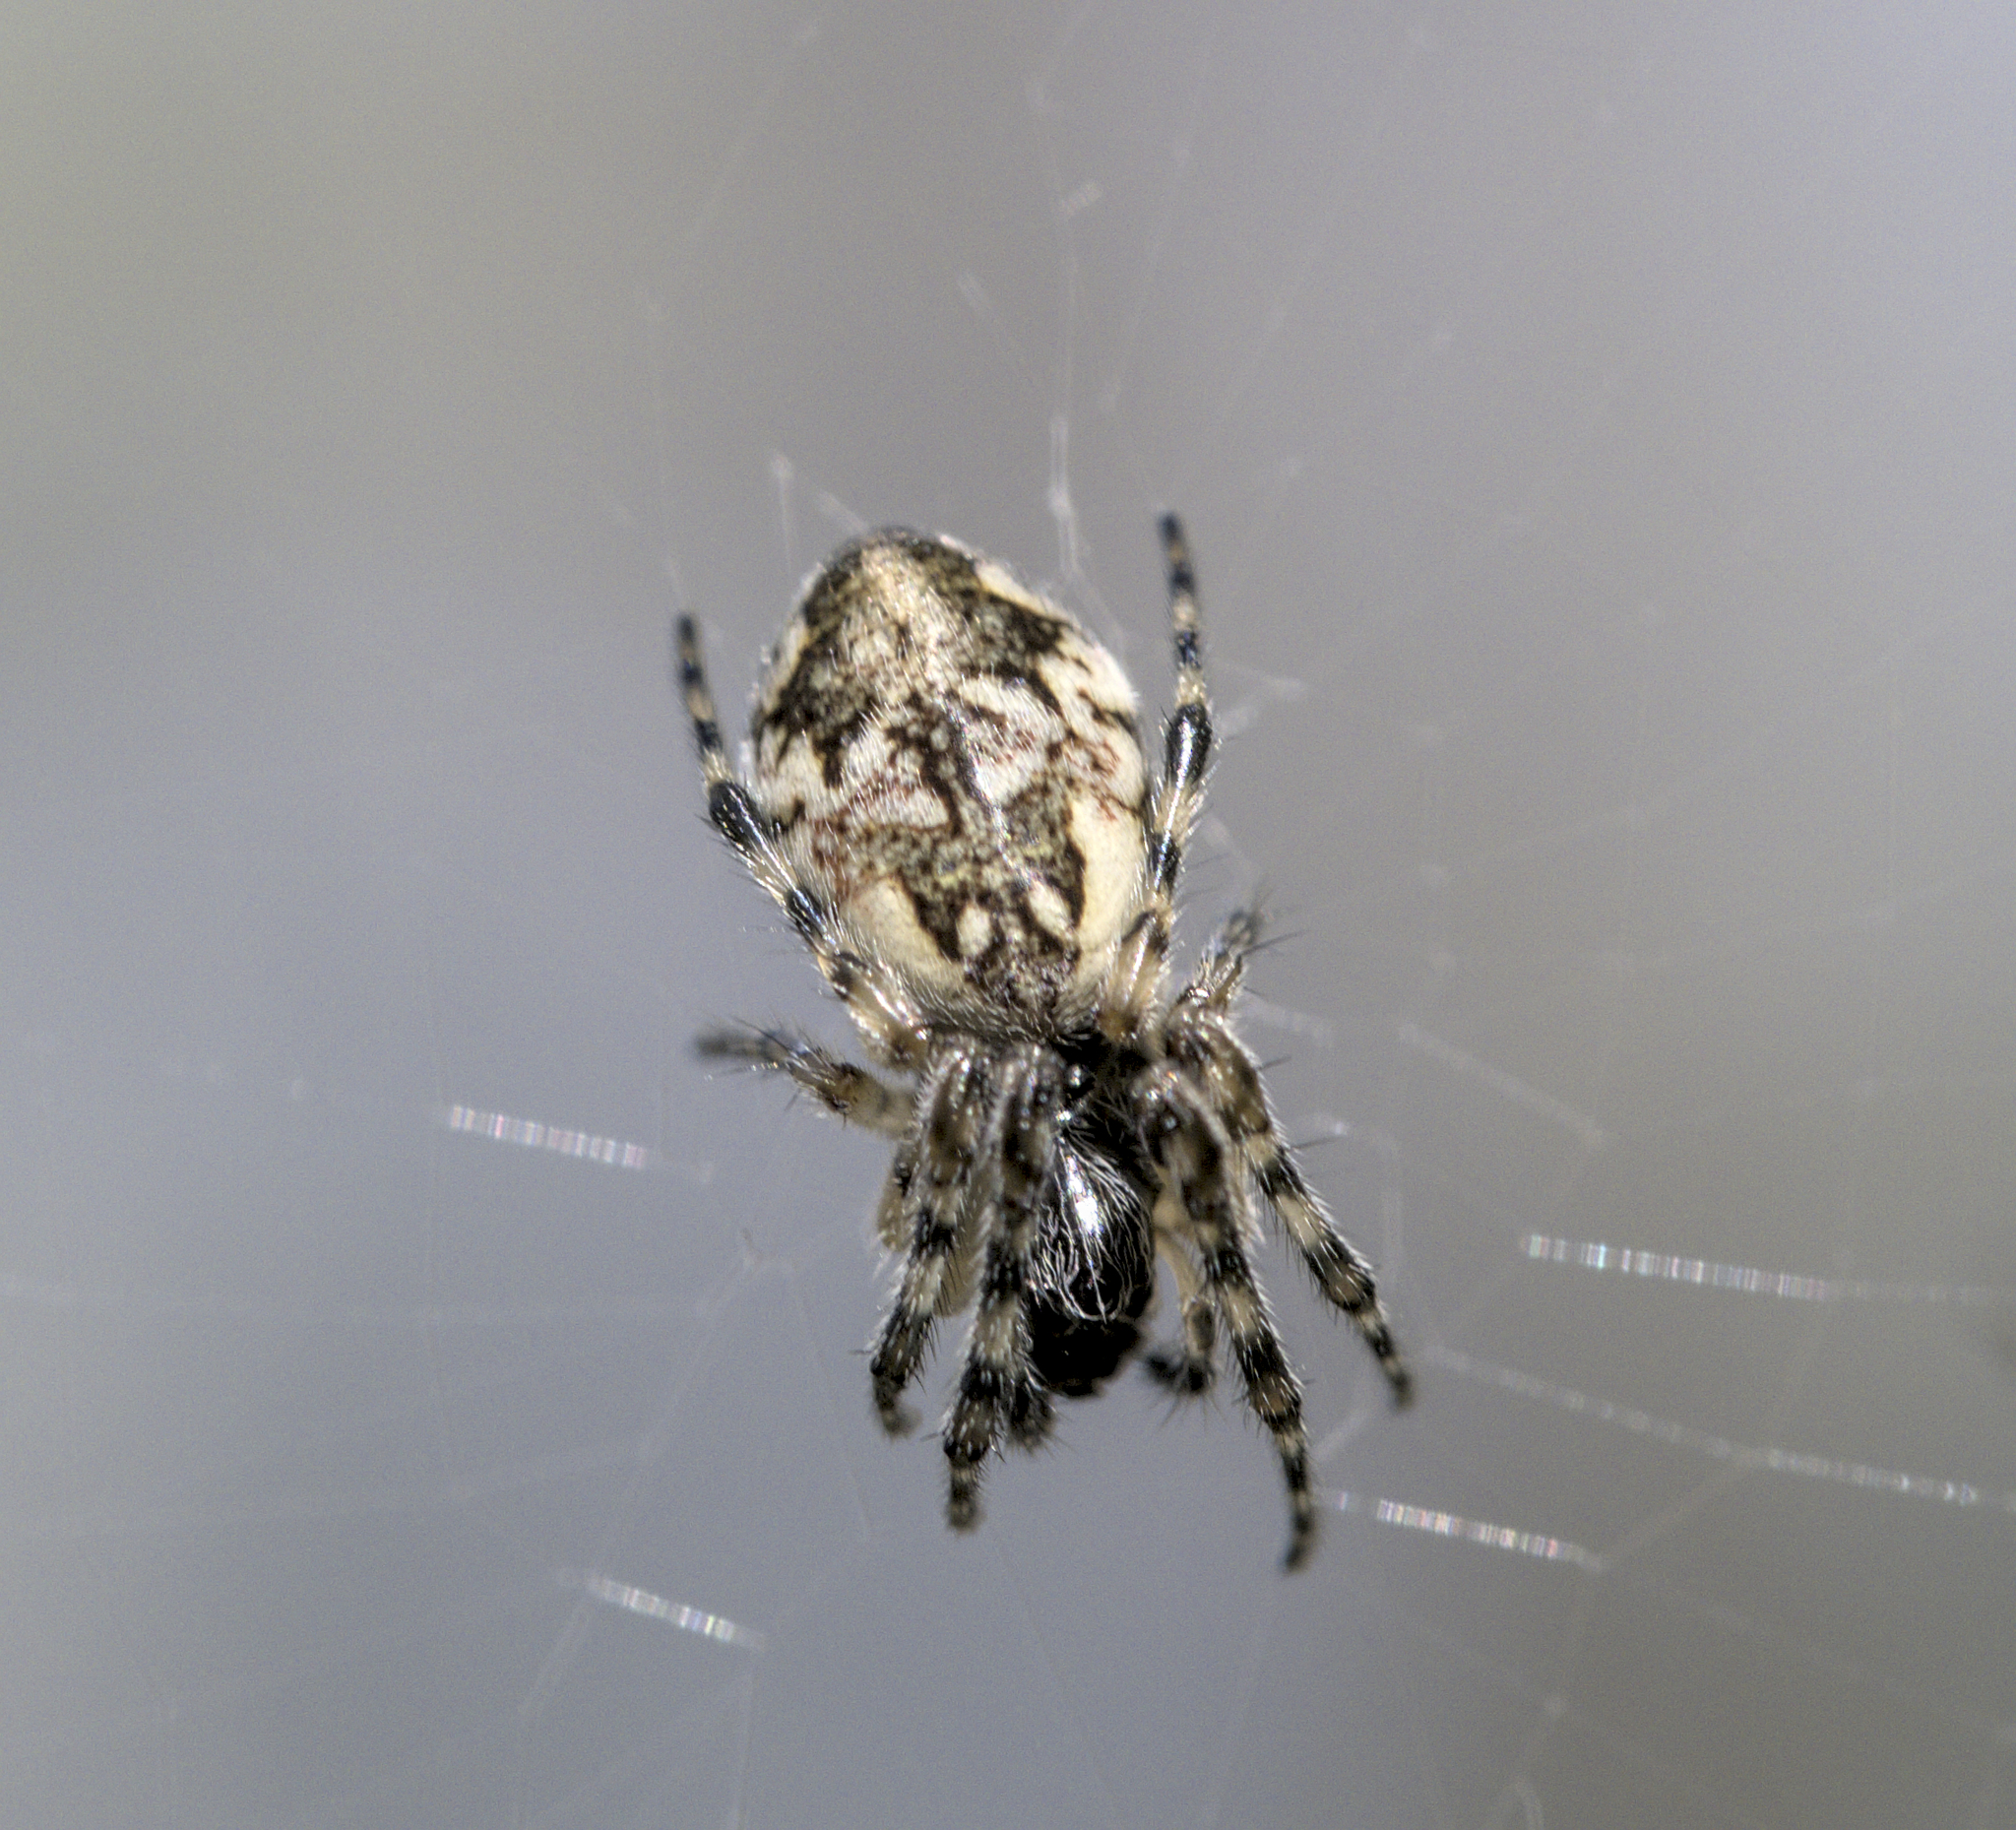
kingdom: Animalia
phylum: Arthropoda
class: Arachnida
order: Araneae
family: Araneidae
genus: Cyclosa
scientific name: Cyclosa conica
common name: Conical trashline orbweaver
